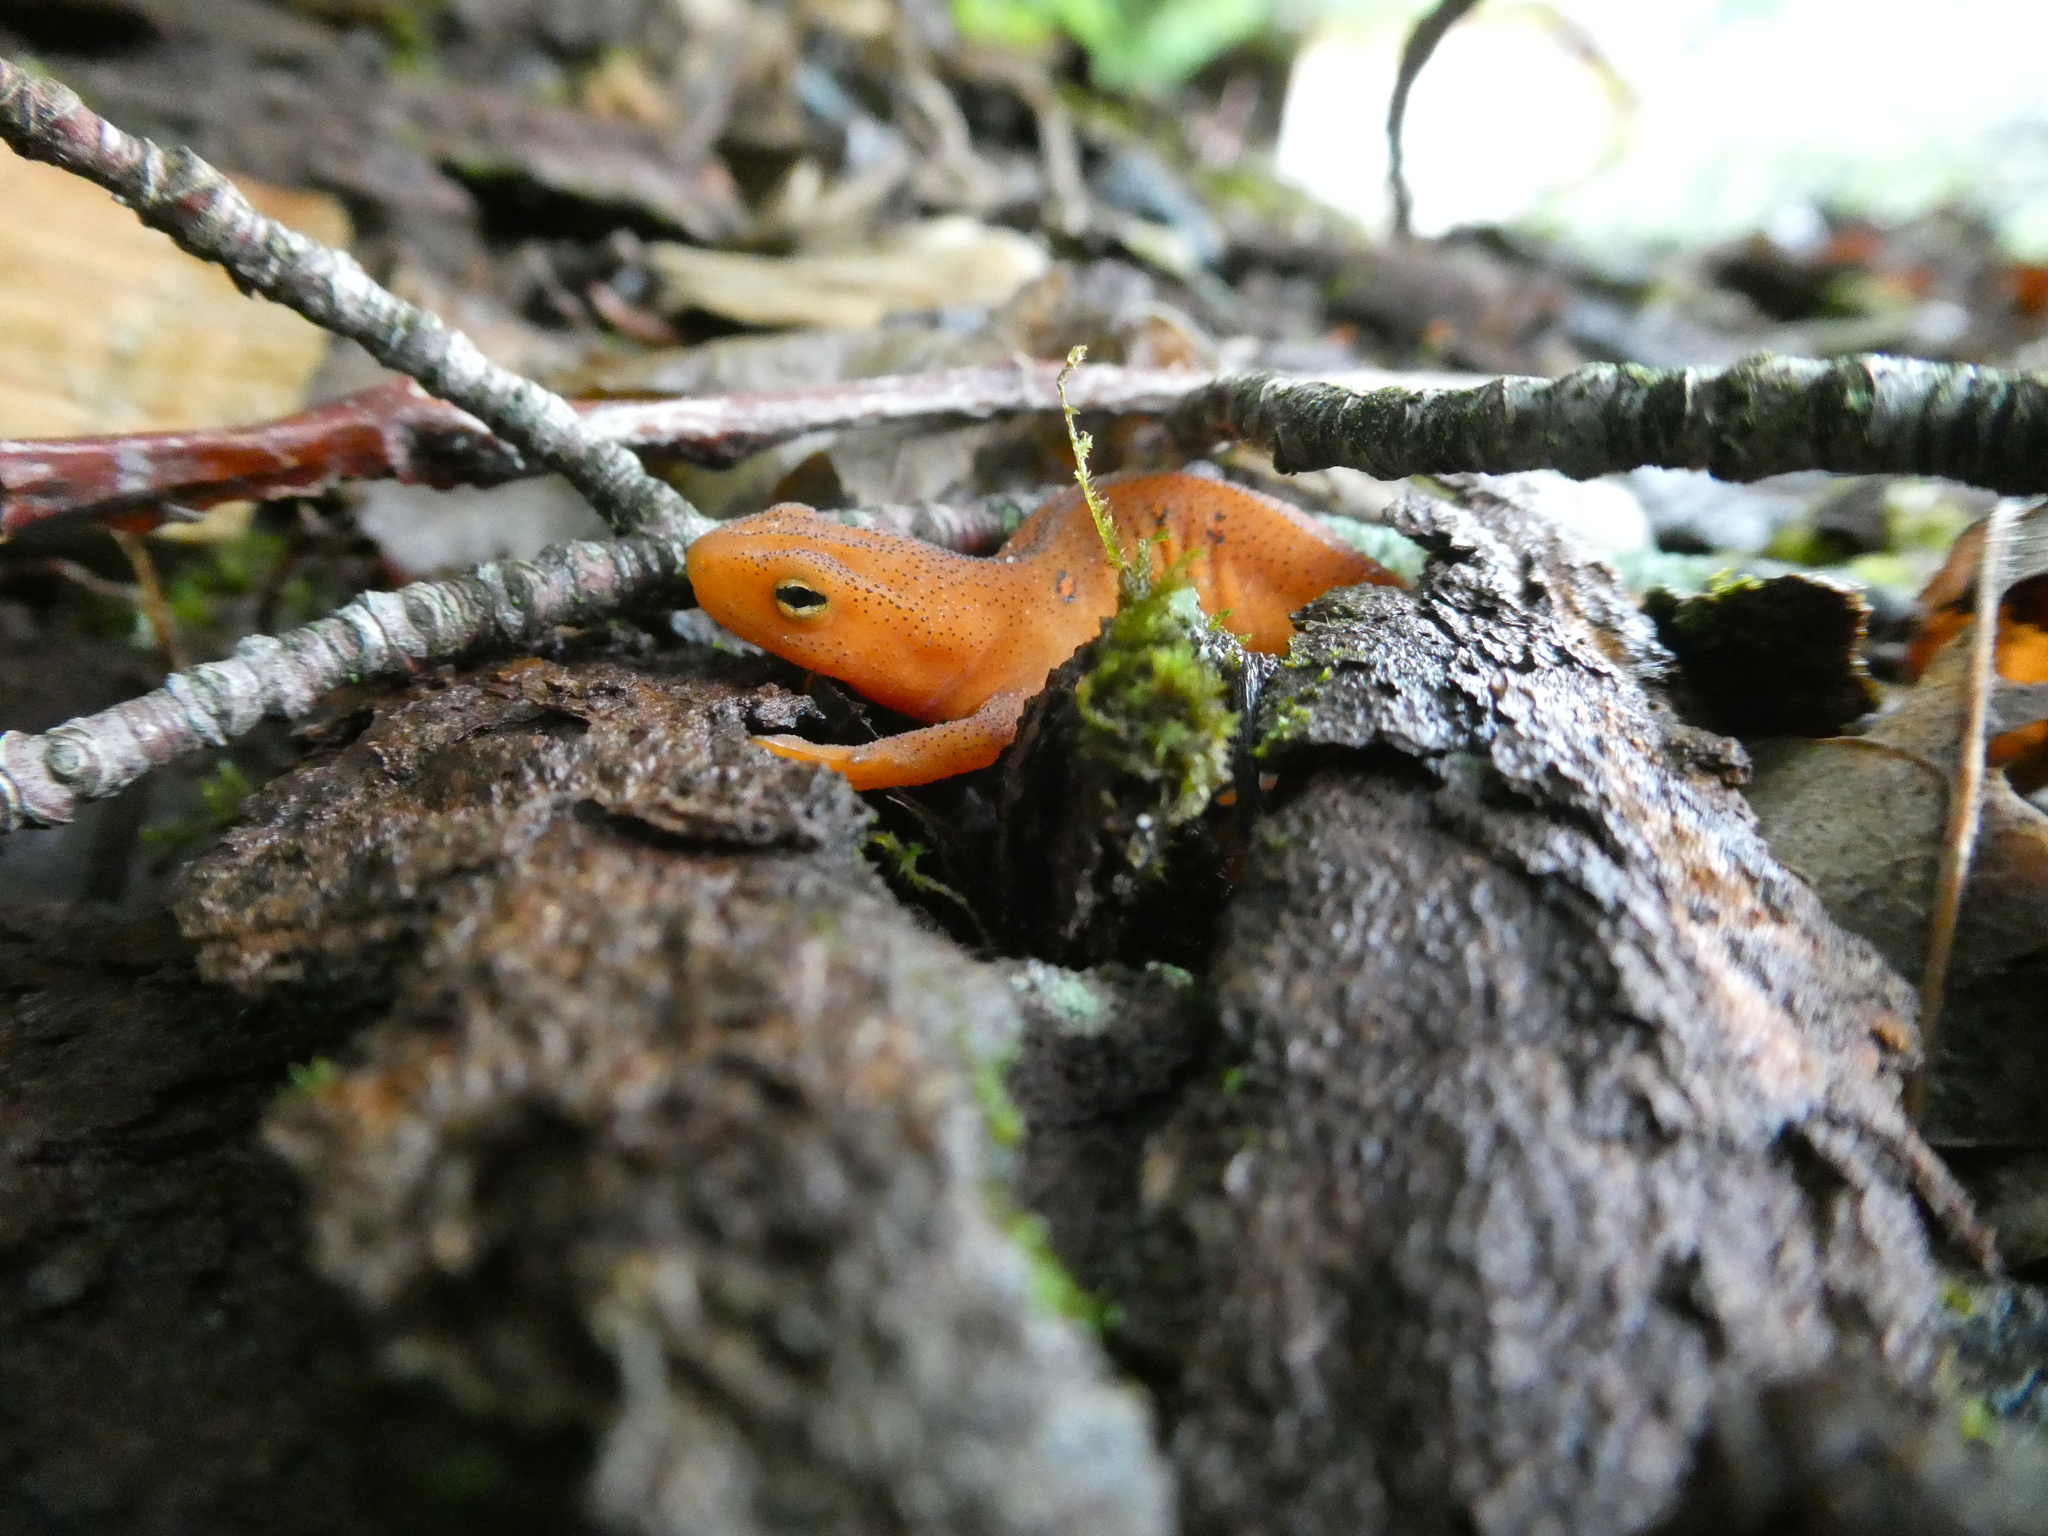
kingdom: Animalia
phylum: Chordata
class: Amphibia
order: Caudata
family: Salamandridae
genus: Notophthalmus
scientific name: Notophthalmus viridescens
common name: Eastern newt
